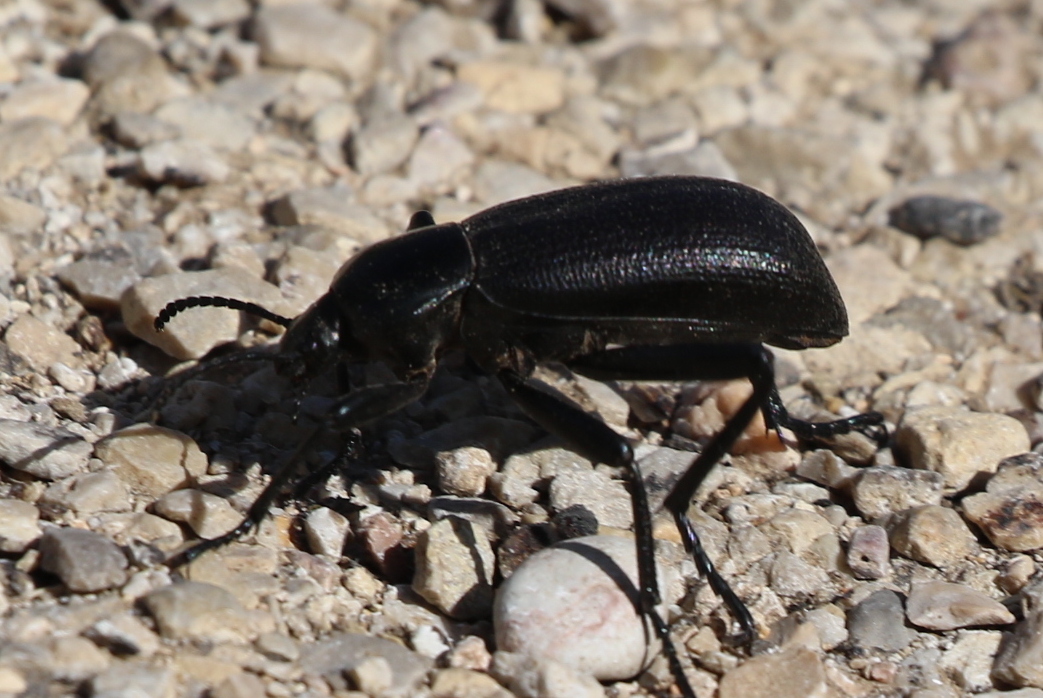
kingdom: Animalia
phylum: Arthropoda
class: Insecta
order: Coleoptera
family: Tenebrionidae
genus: Eleodes
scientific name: Eleodes obscura
